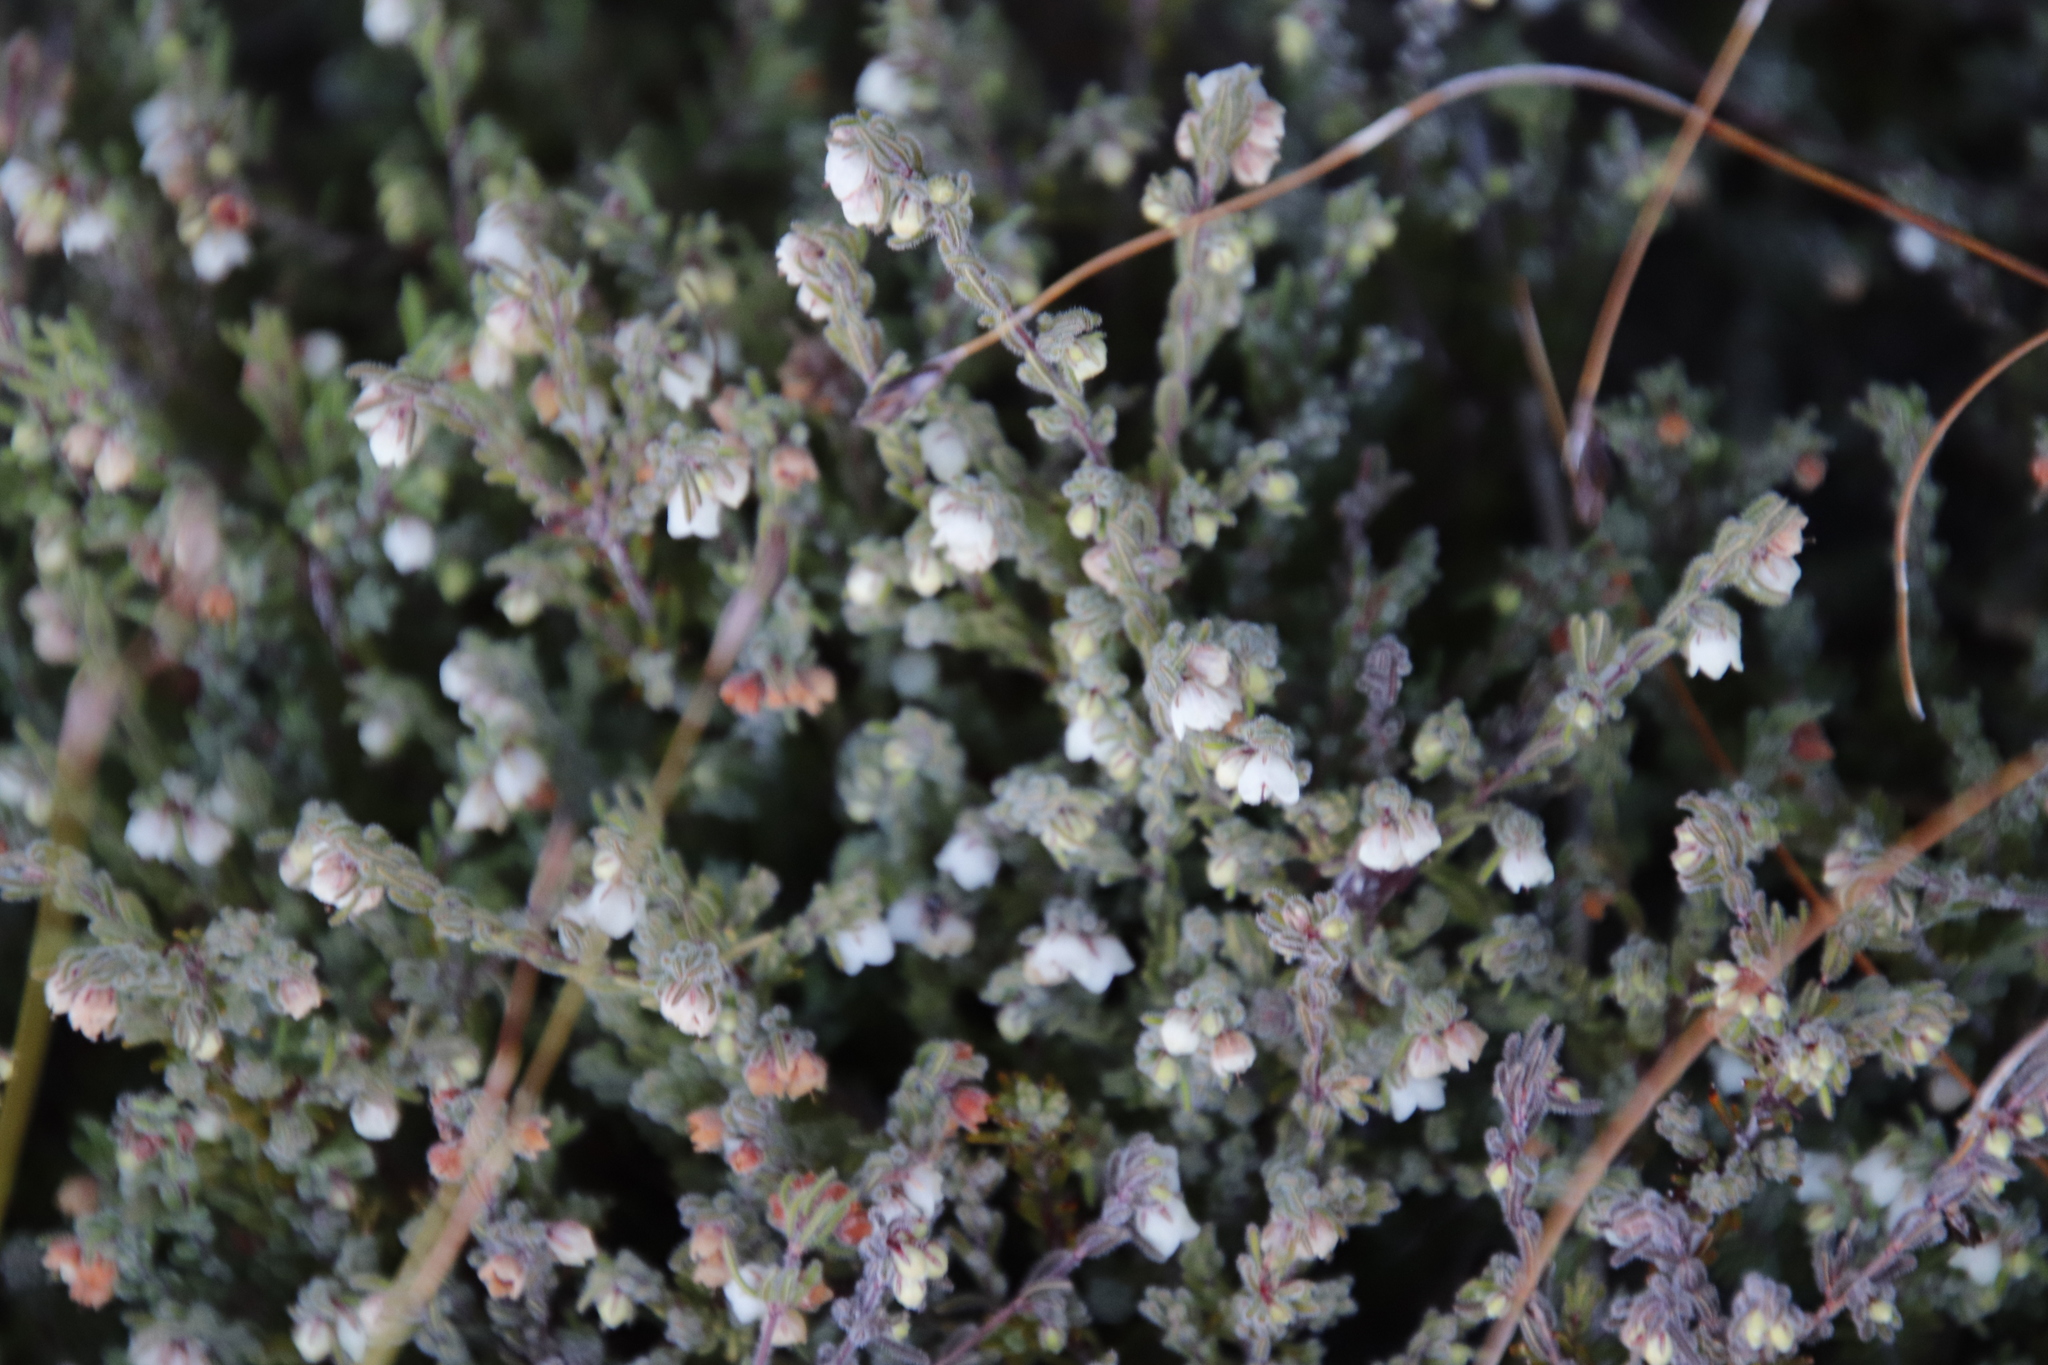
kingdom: Plantae
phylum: Tracheophyta
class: Magnoliopsida
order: Ericales
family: Ericaceae
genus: Erica
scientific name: Erica distorta
